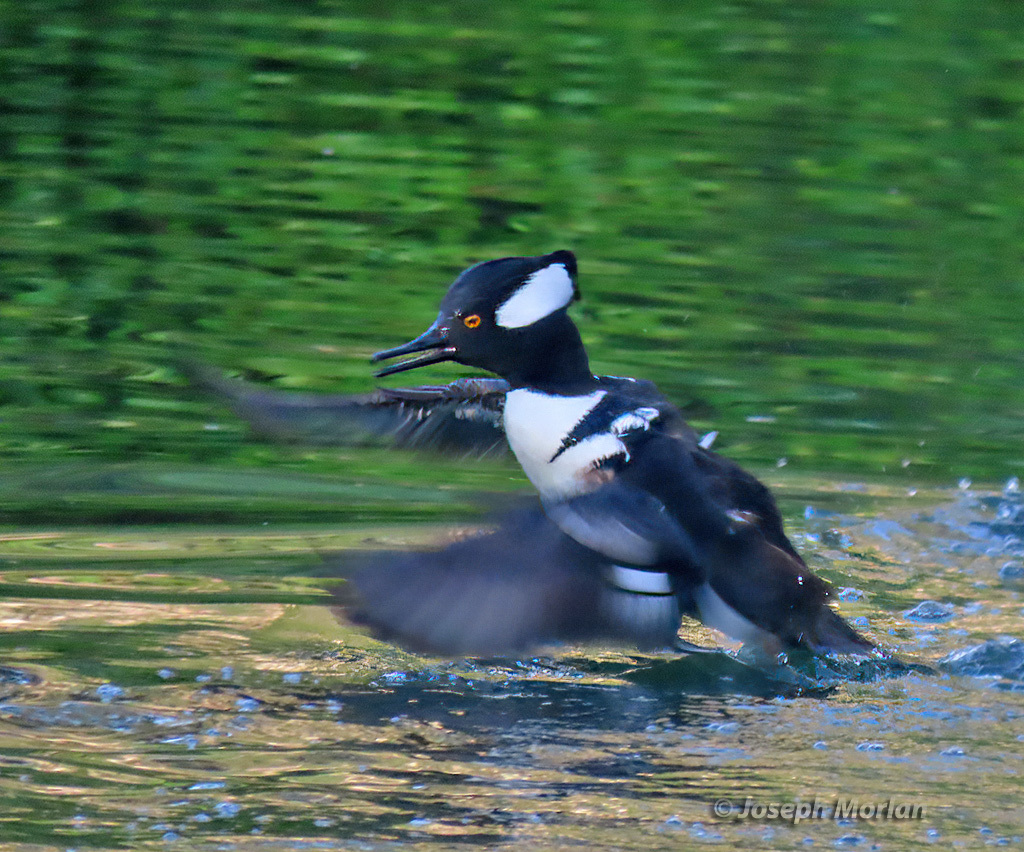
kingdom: Animalia
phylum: Chordata
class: Aves
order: Anseriformes
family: Anatidae
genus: Lophodytes
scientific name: Lophodytes cucullatus
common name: Hooded merganser
